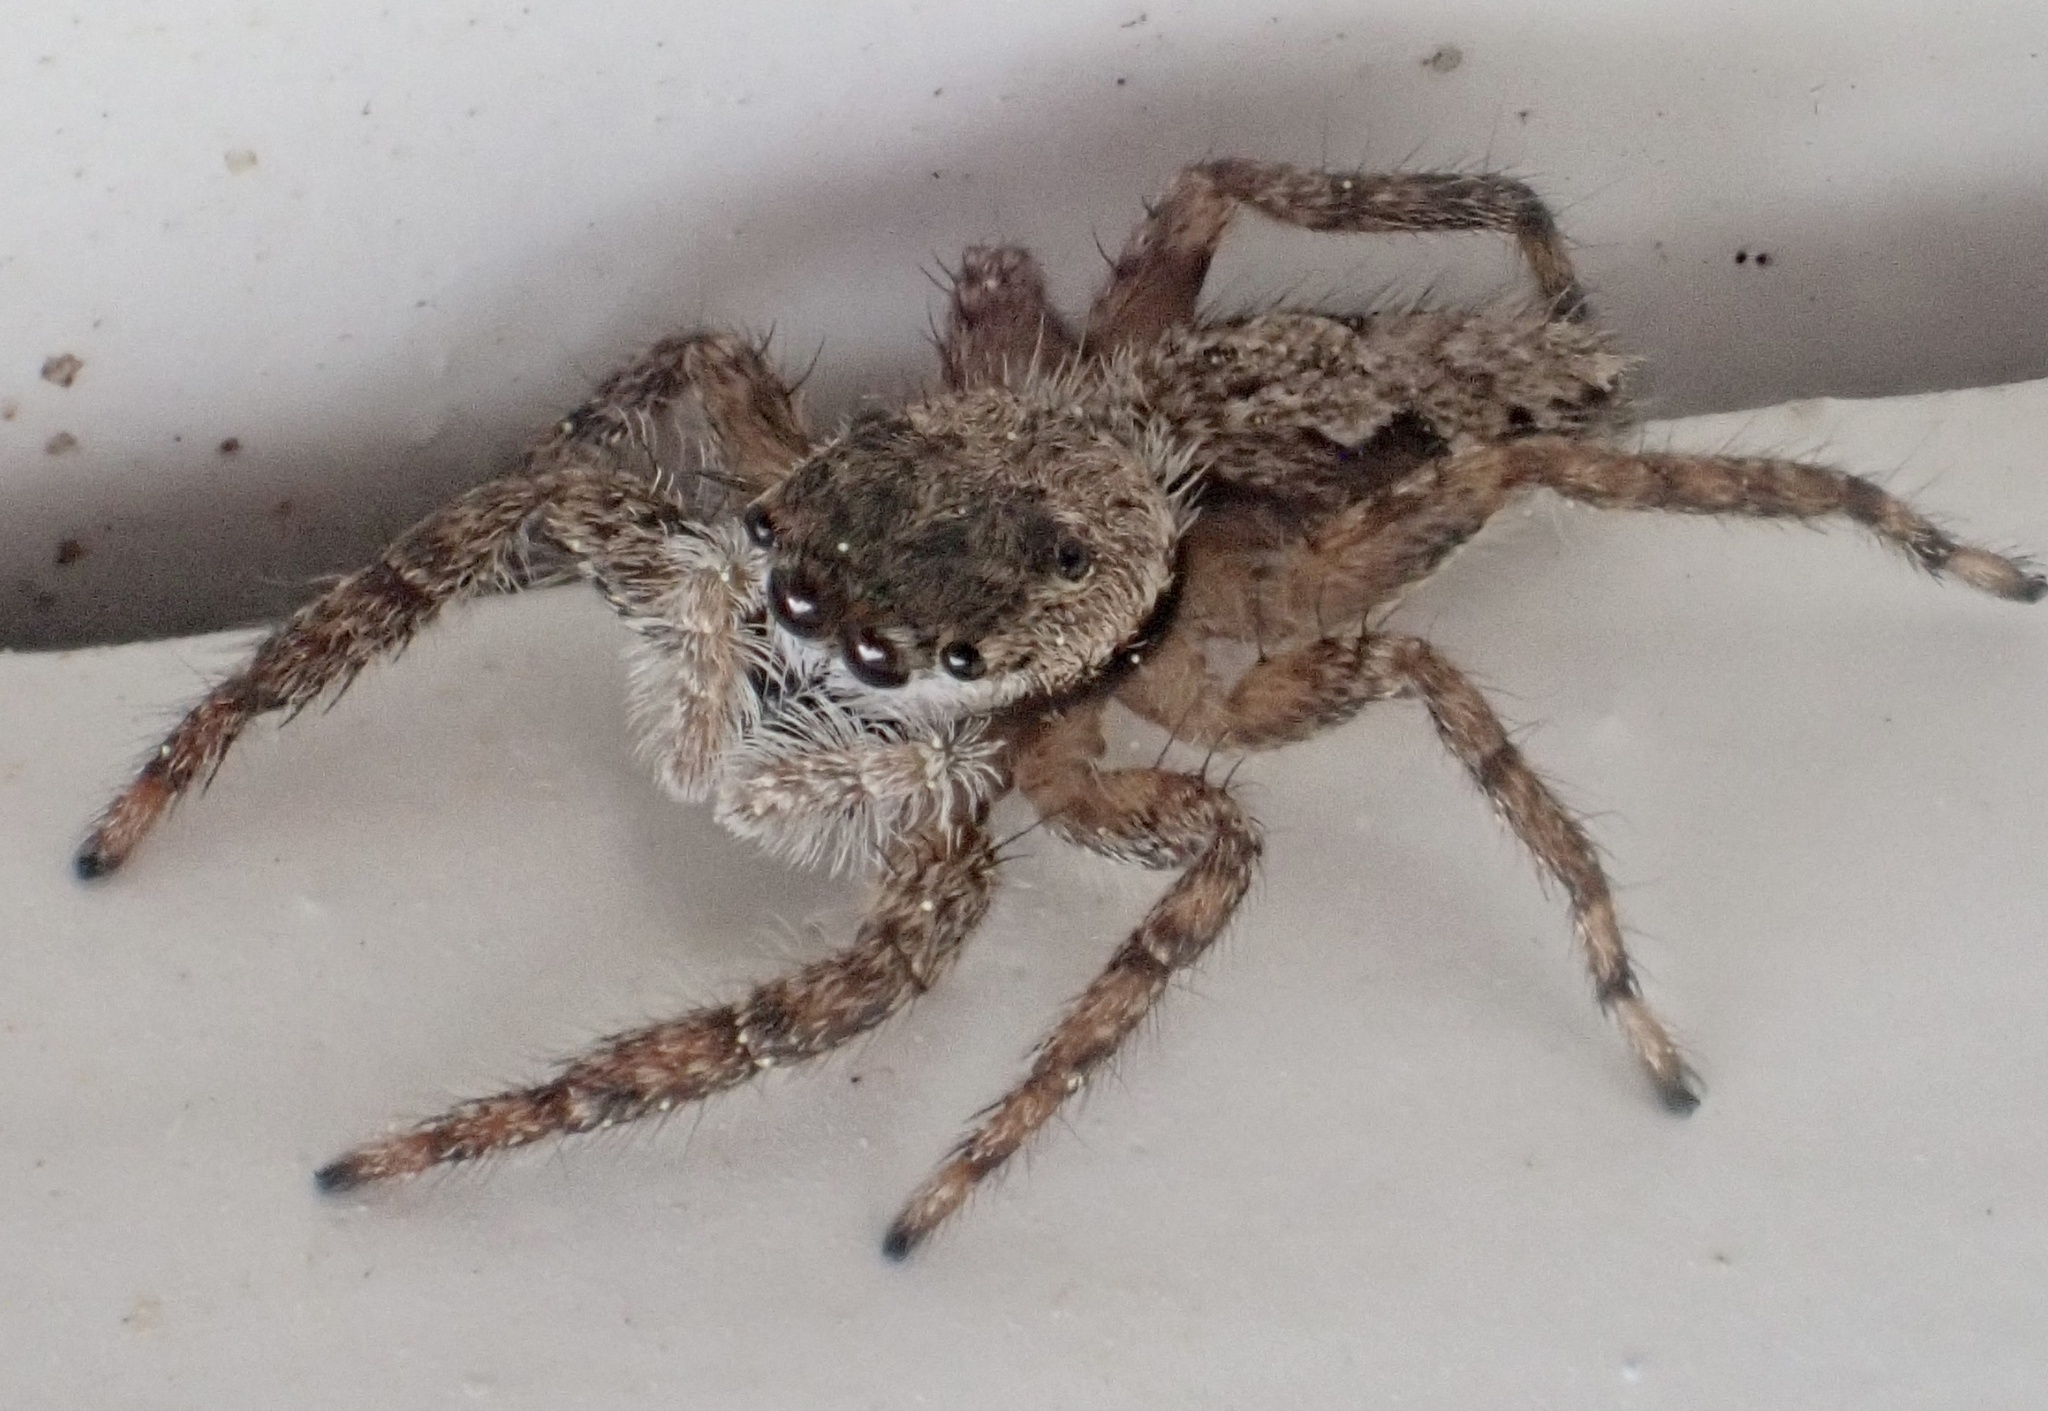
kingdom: Animalia
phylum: Arthropoda
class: Arachnida
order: Araneae
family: Salticidae
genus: Platycryptus
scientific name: Platycryptus undatus
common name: Tan jumping spider
